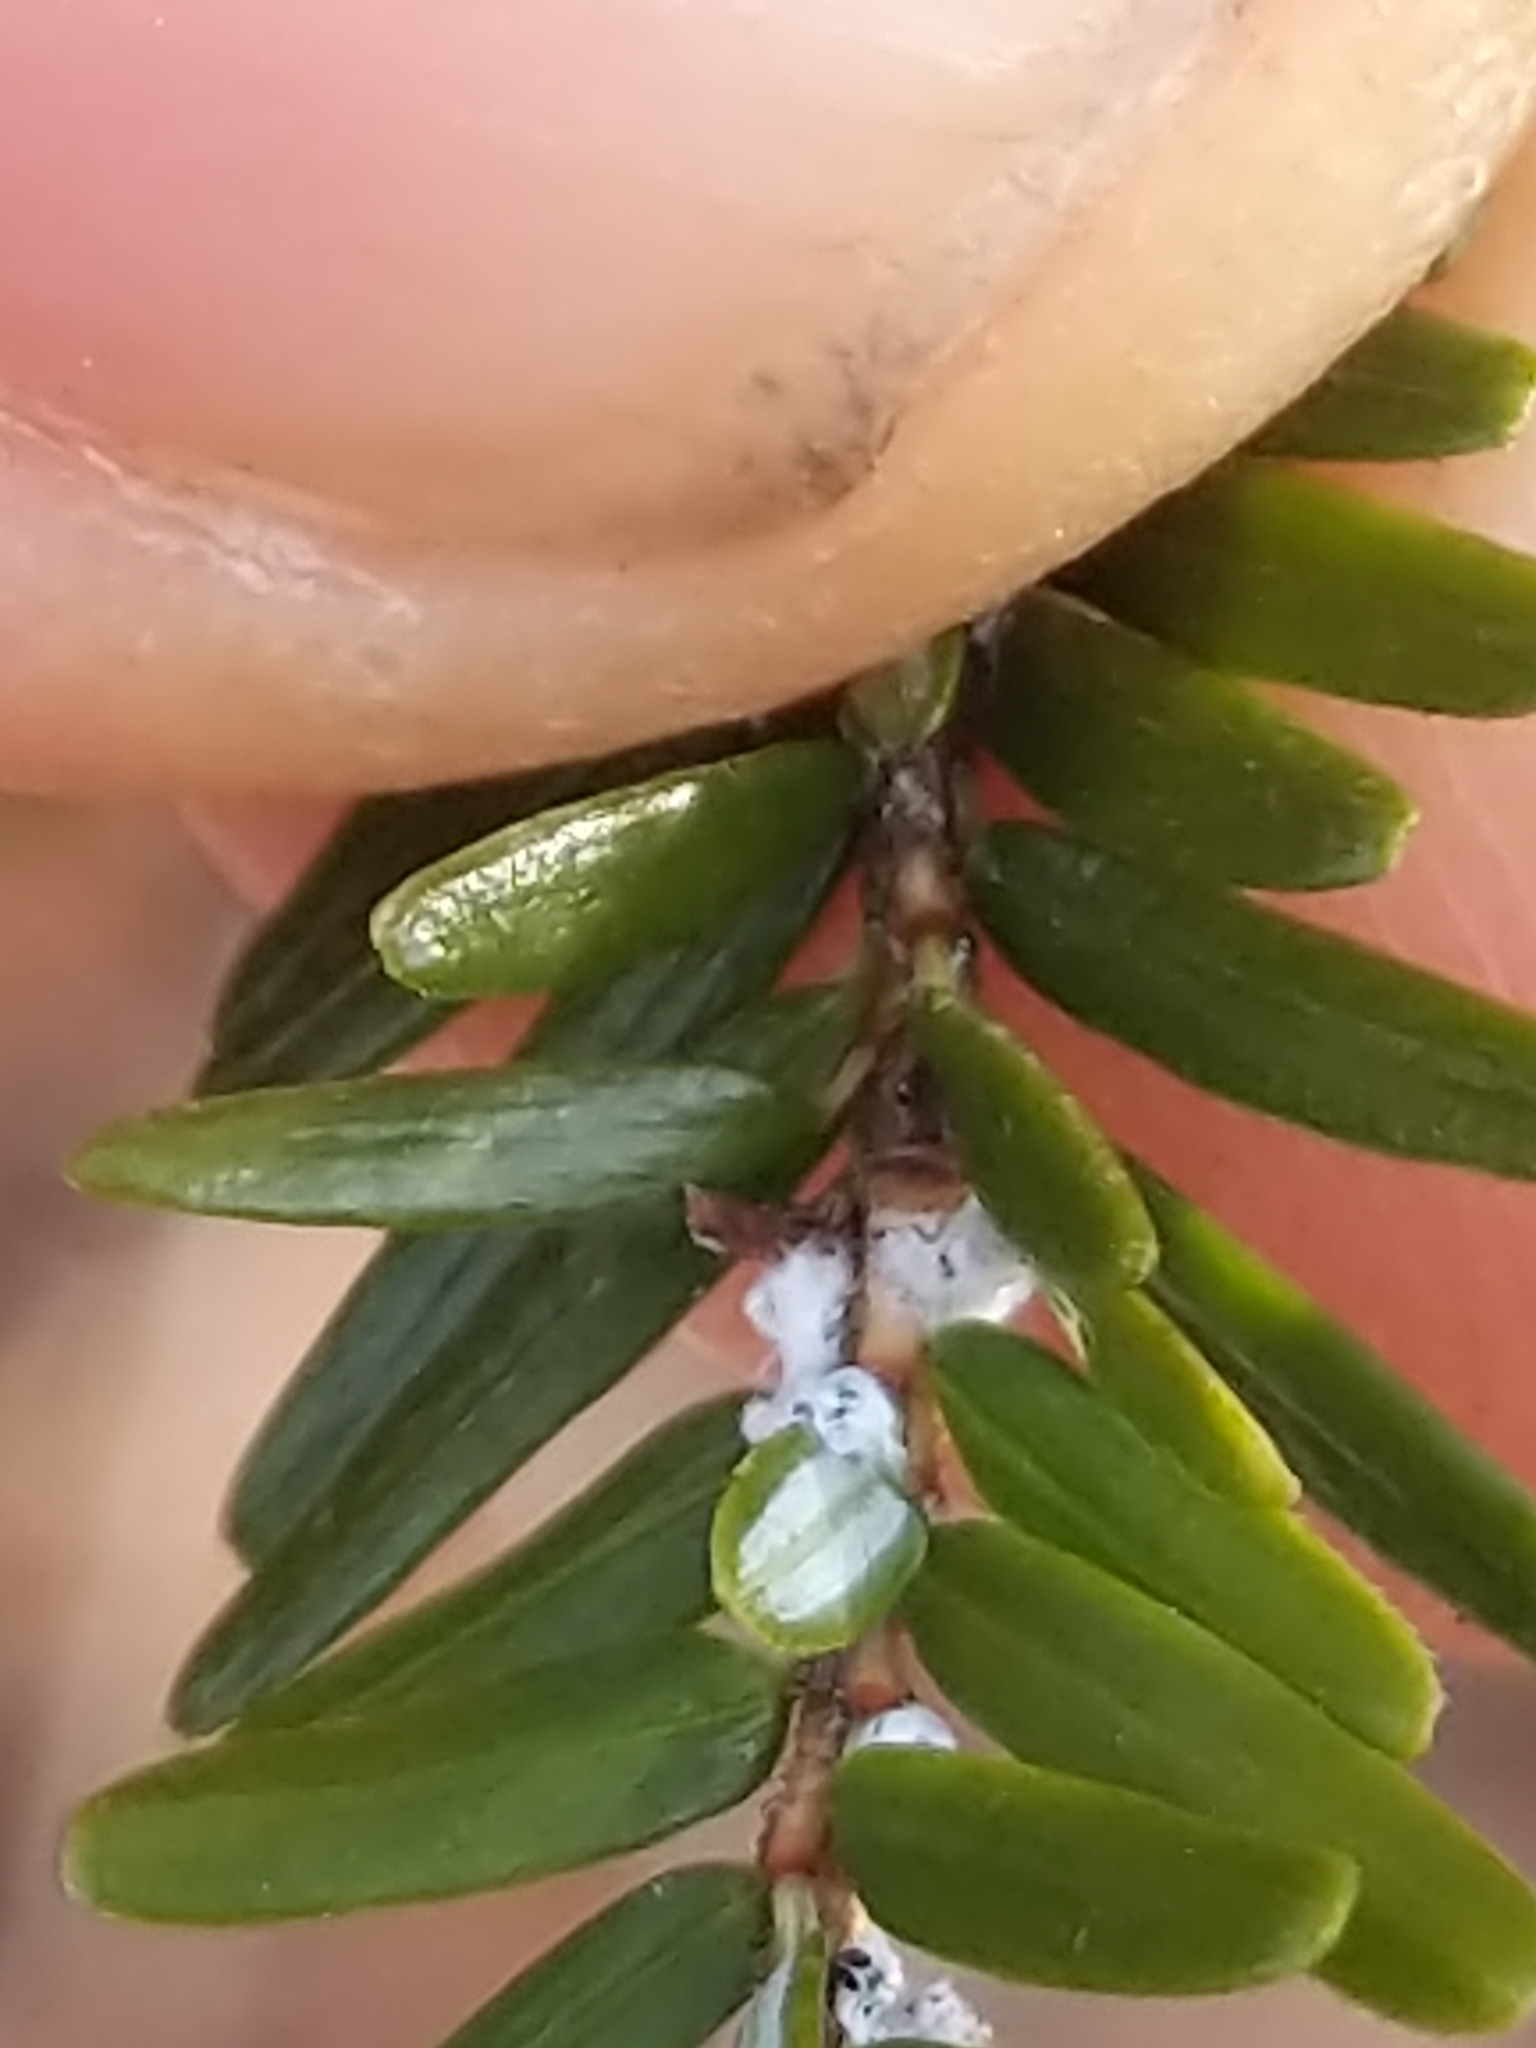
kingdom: Animalia
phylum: Arthropoda
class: Insecta
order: Hemiptera
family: Adelgidae
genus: Adelges
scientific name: Adelges tsugae
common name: Hemlock woolly adelgid
